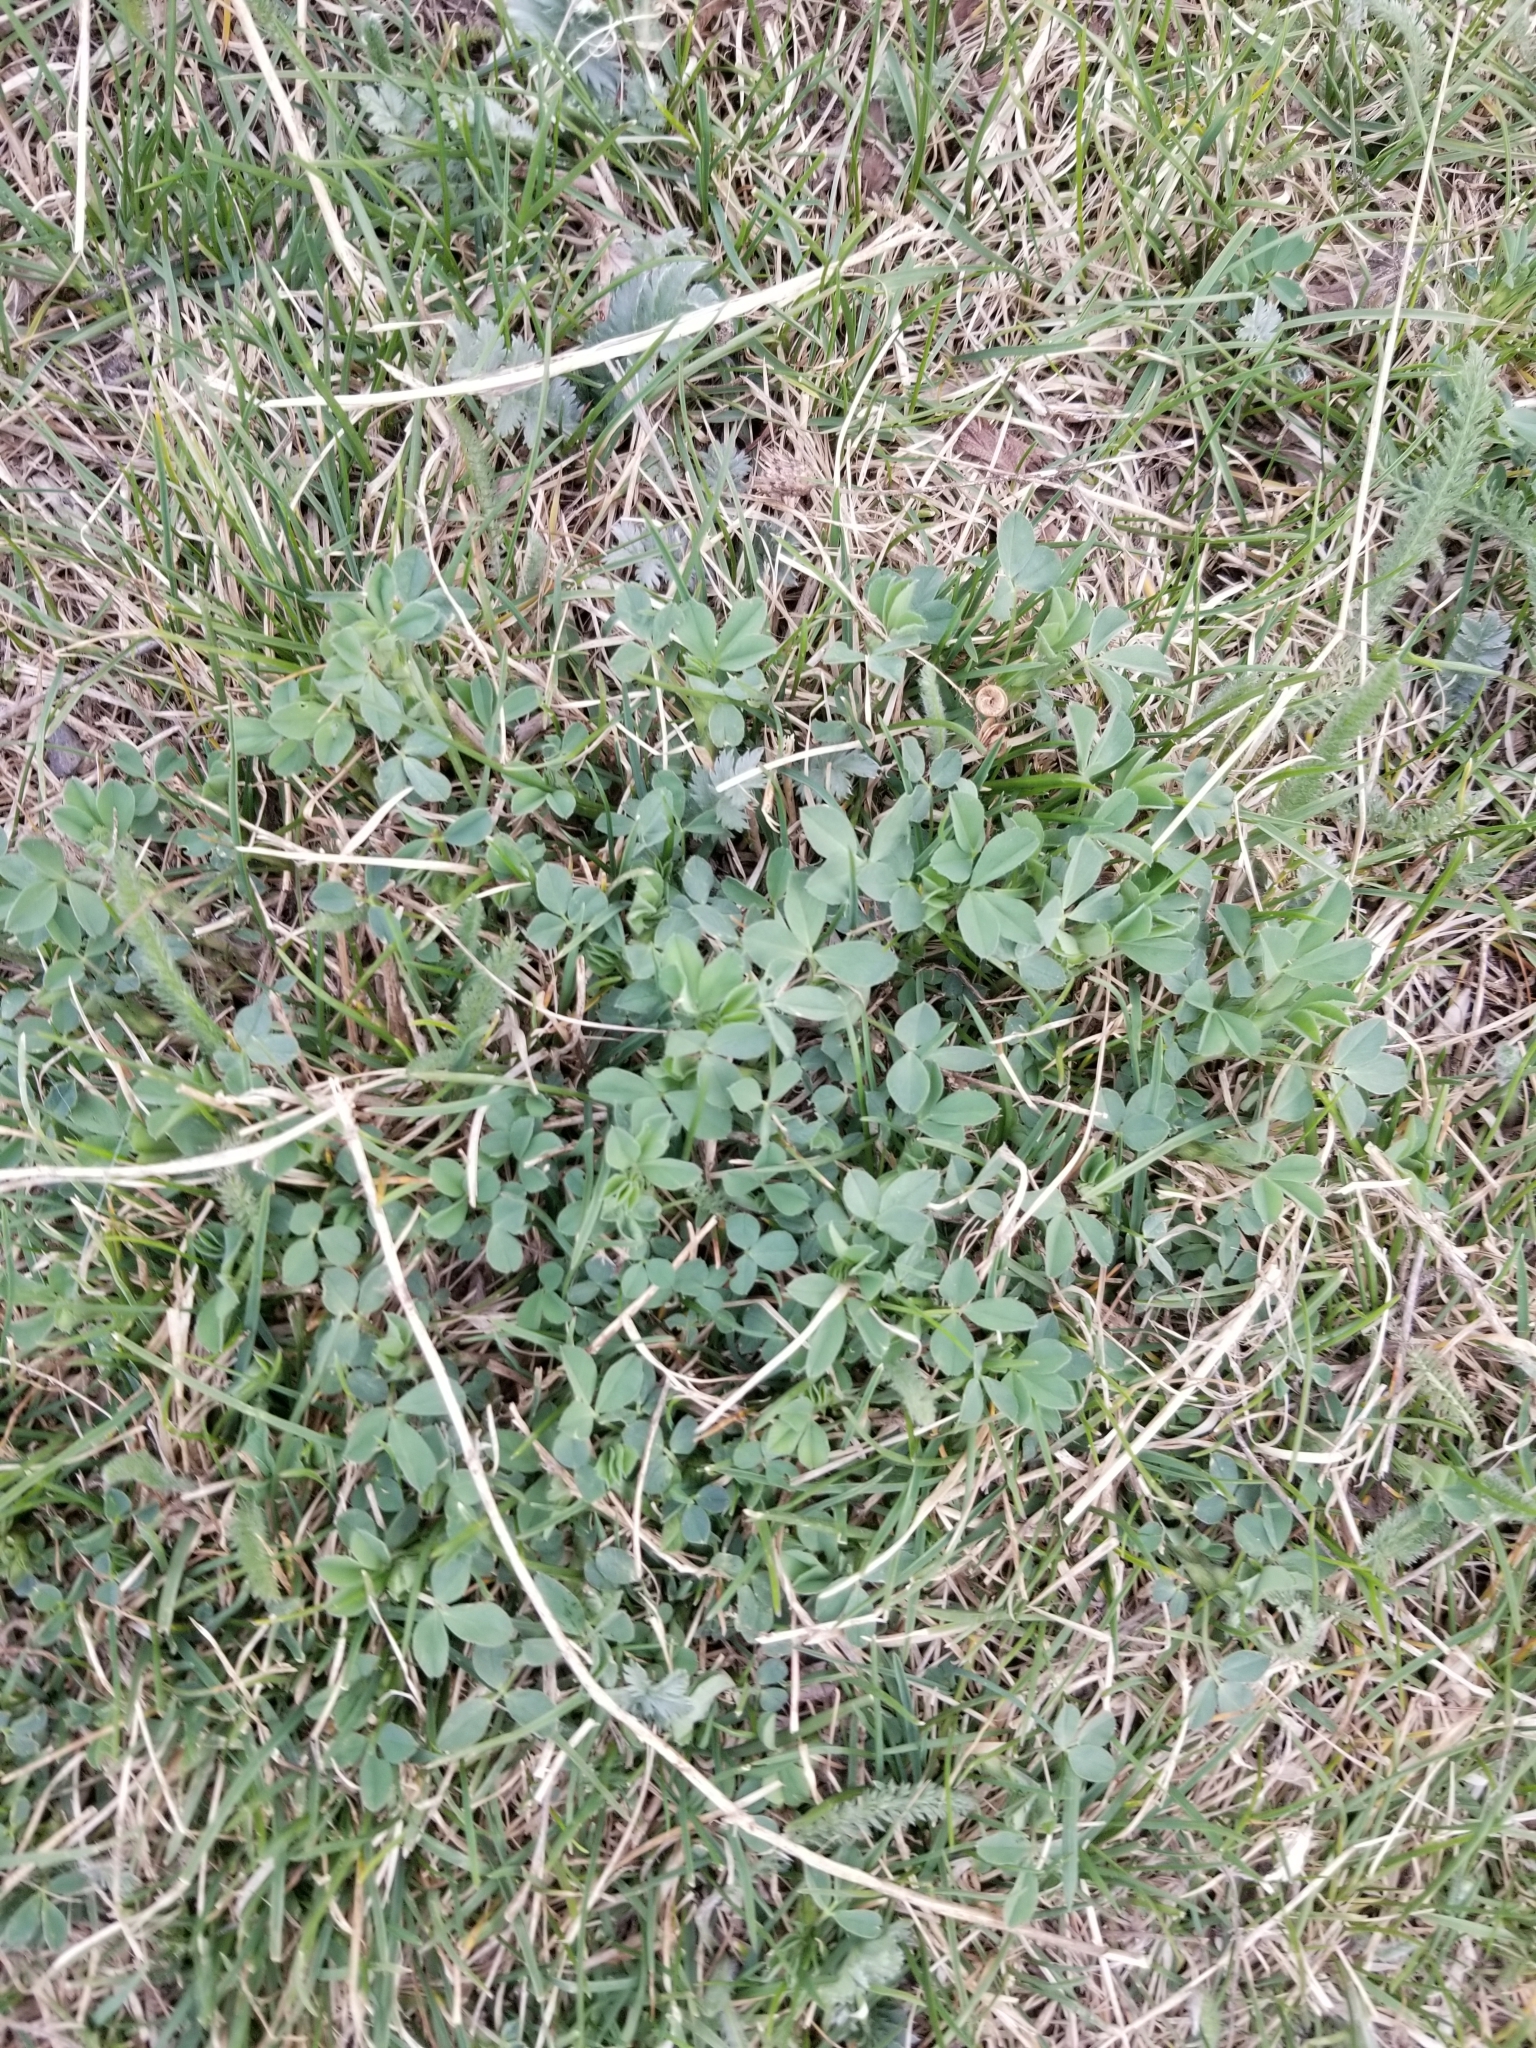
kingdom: Plantae
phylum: Tracheophyta
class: Magnoliopsida
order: Fabales
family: Fabaceae
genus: Medicago
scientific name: Medicago sativa
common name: Alfalfa
